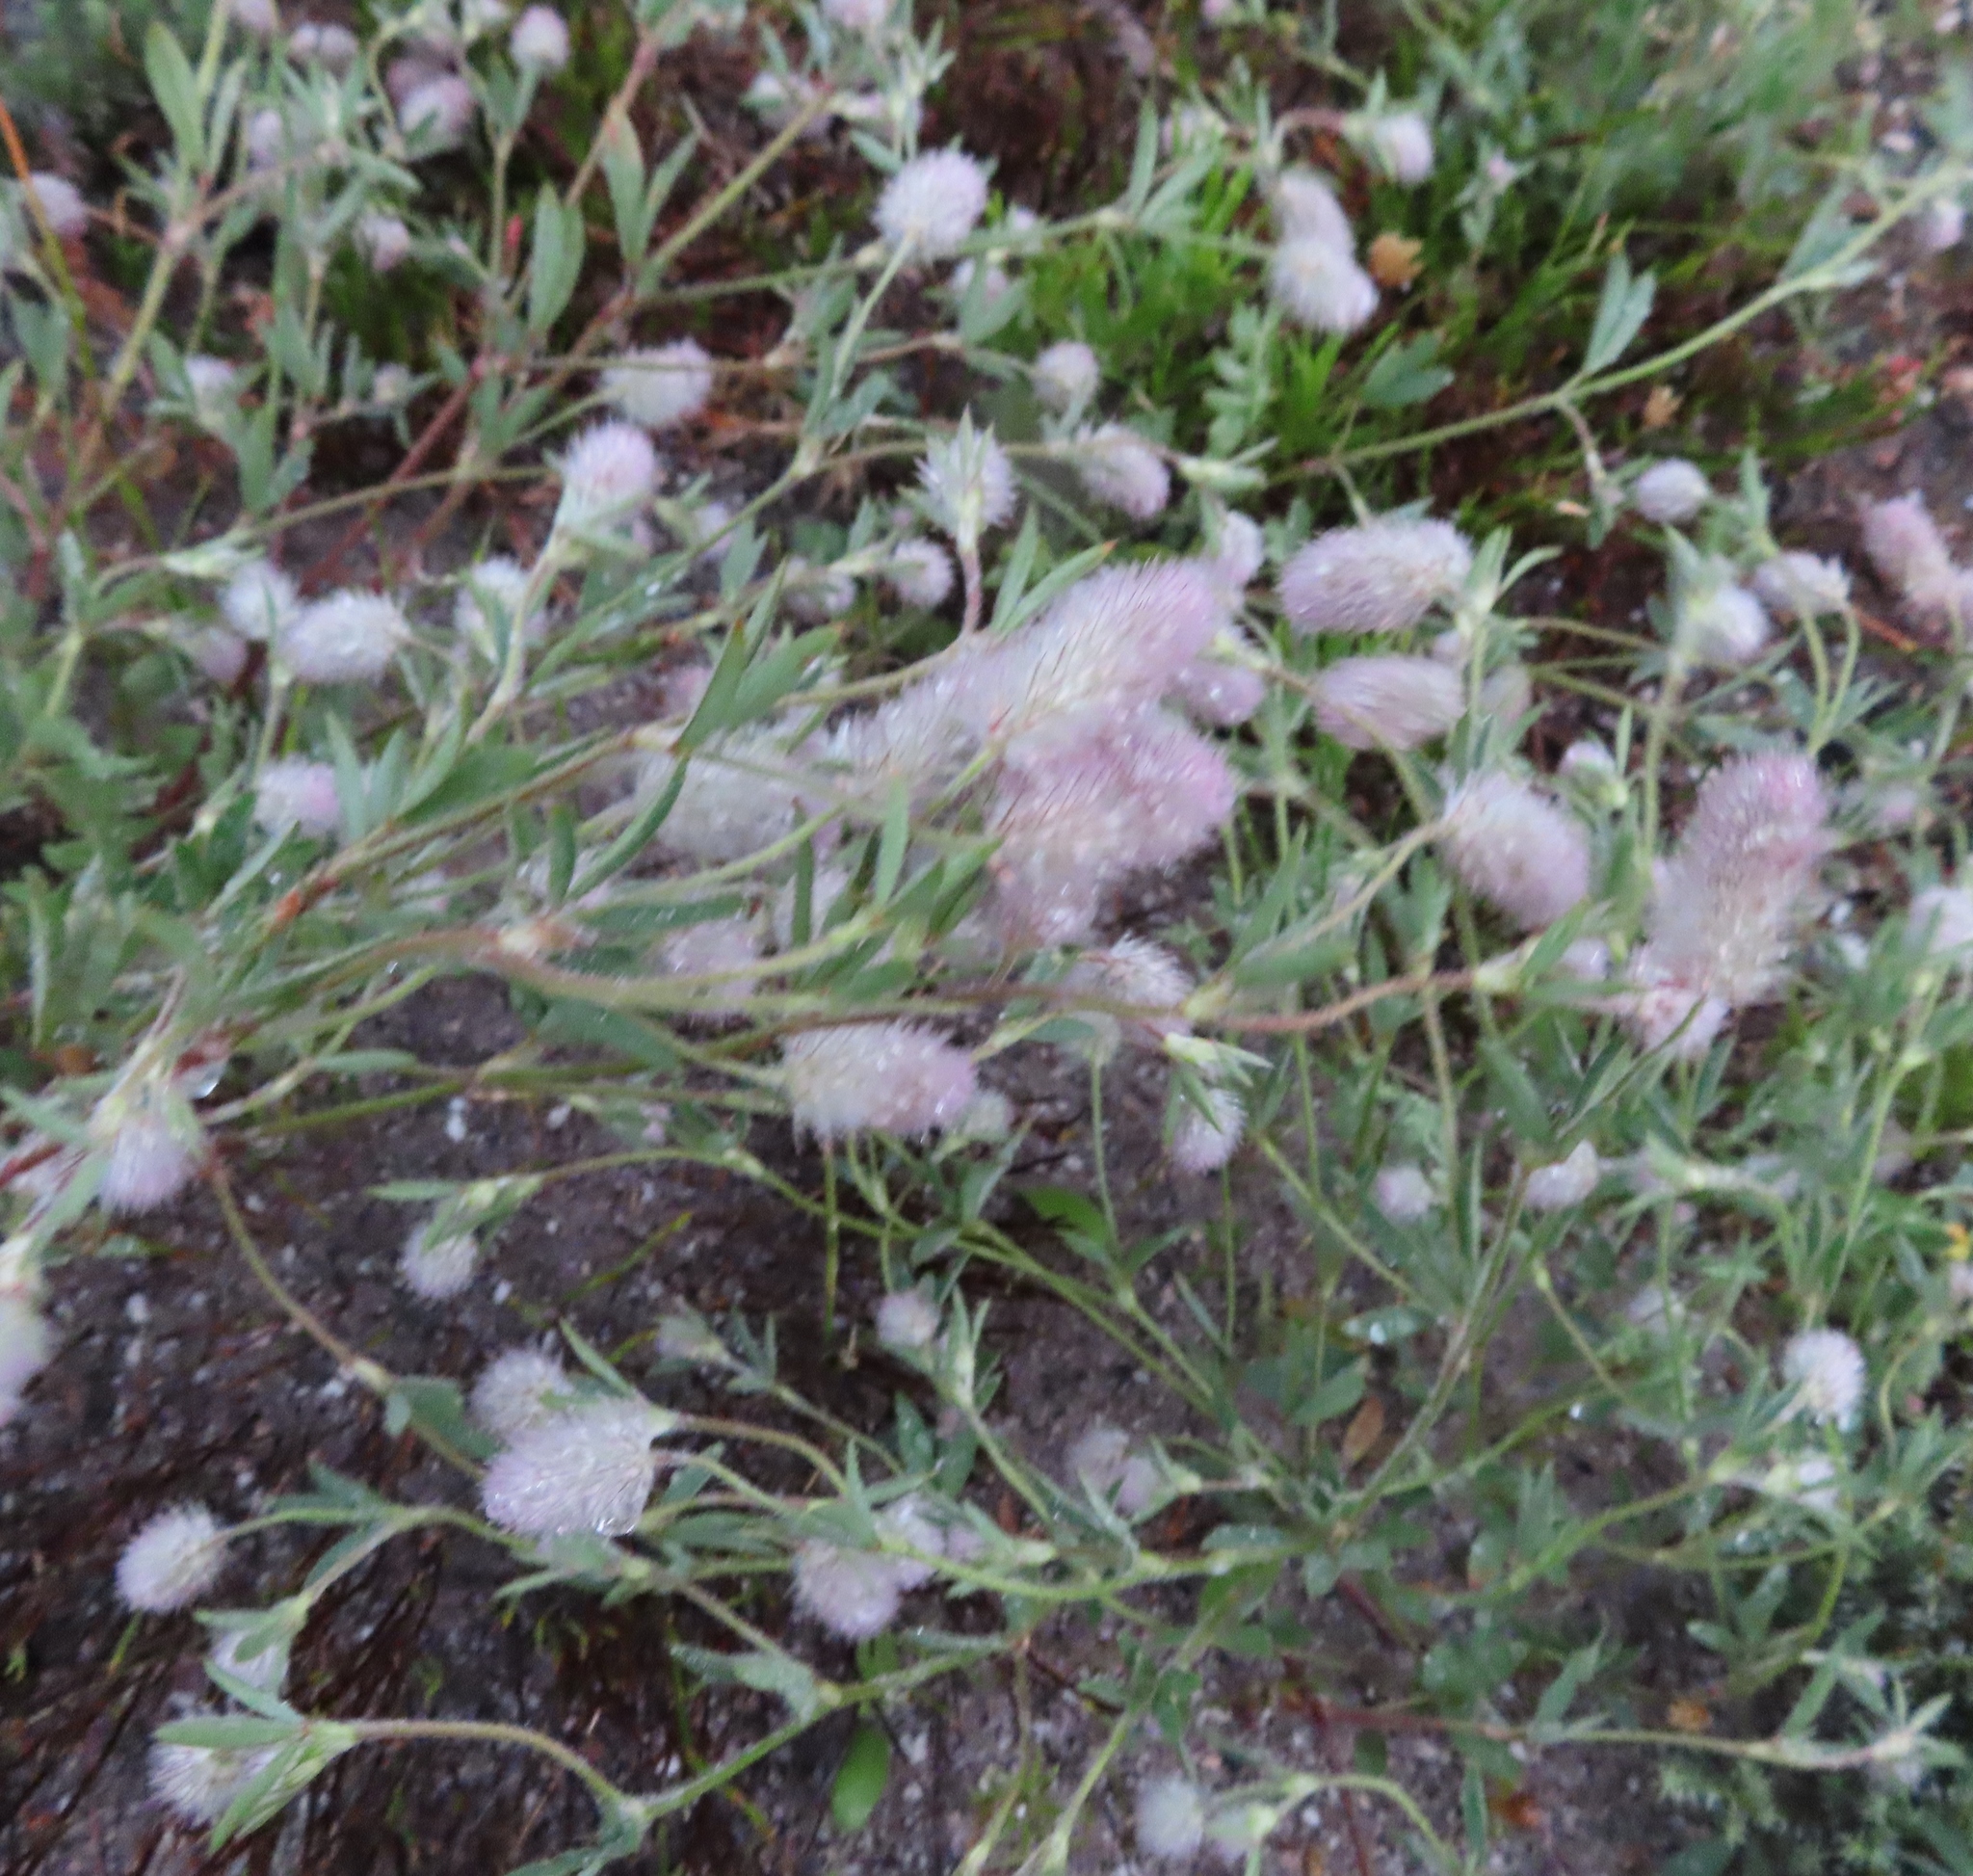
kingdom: Plantae
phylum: Tracheophyta
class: Magnoliopsida
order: Fabales
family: Fabaceae
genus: Trifolium
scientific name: Trifolium arvense
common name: Hare's-foot clover
